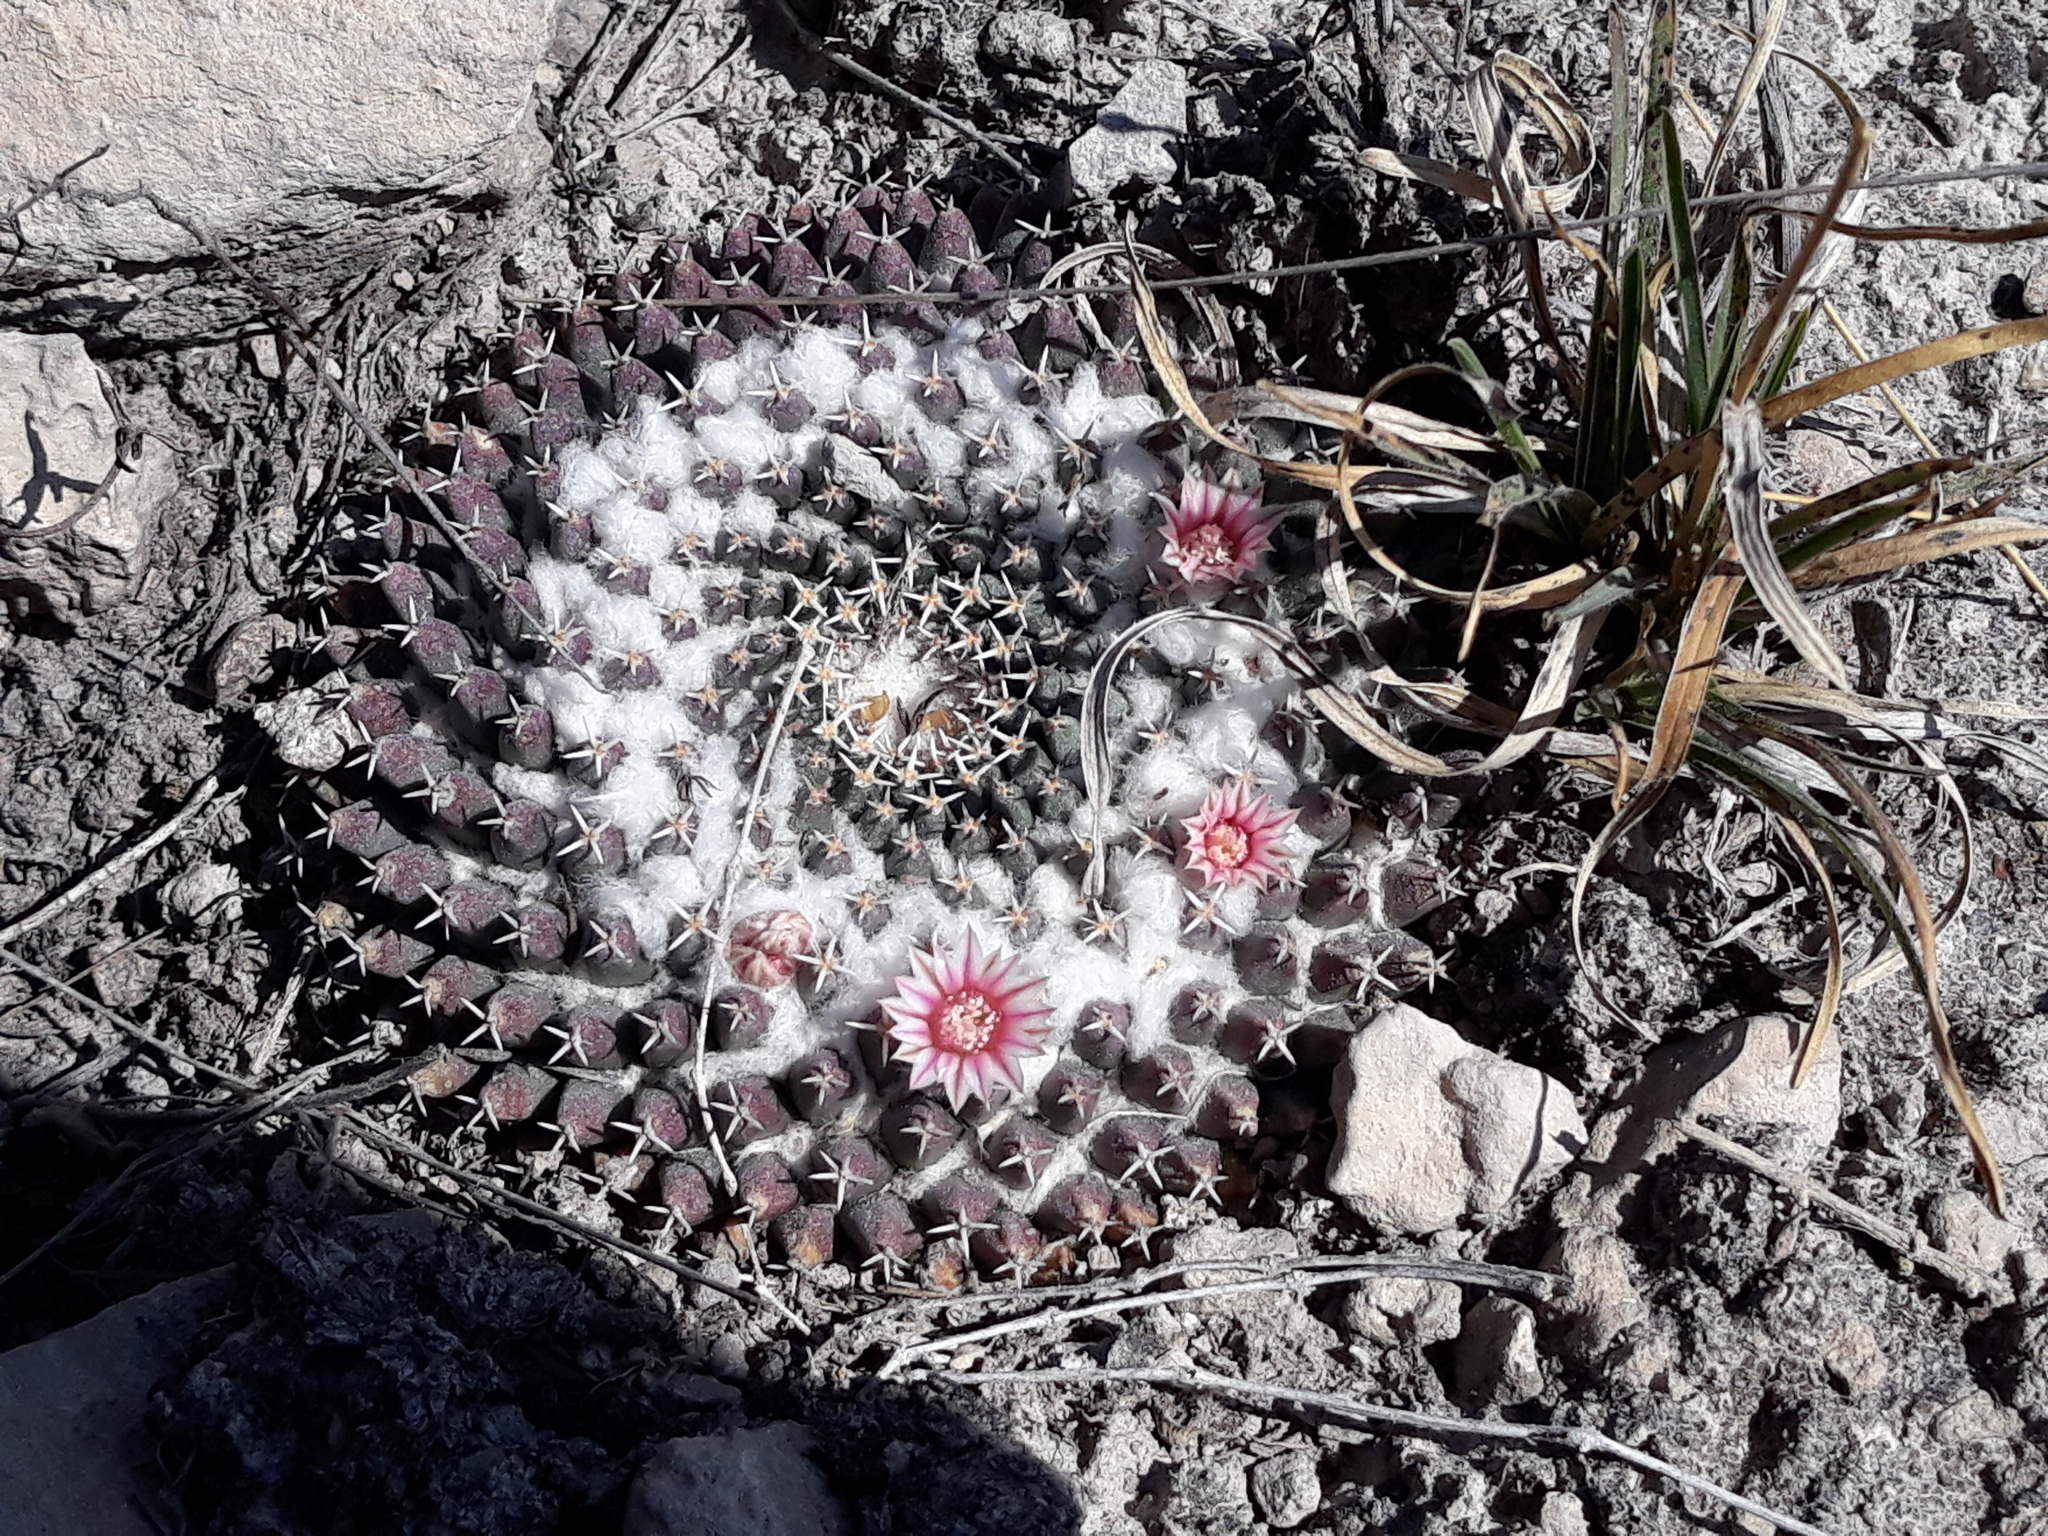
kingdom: Plantae
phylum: Tracheophyta
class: Magnoliopsida
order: Caryophyllales
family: Cactaceae
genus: Mammillaria
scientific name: Mammillaria
